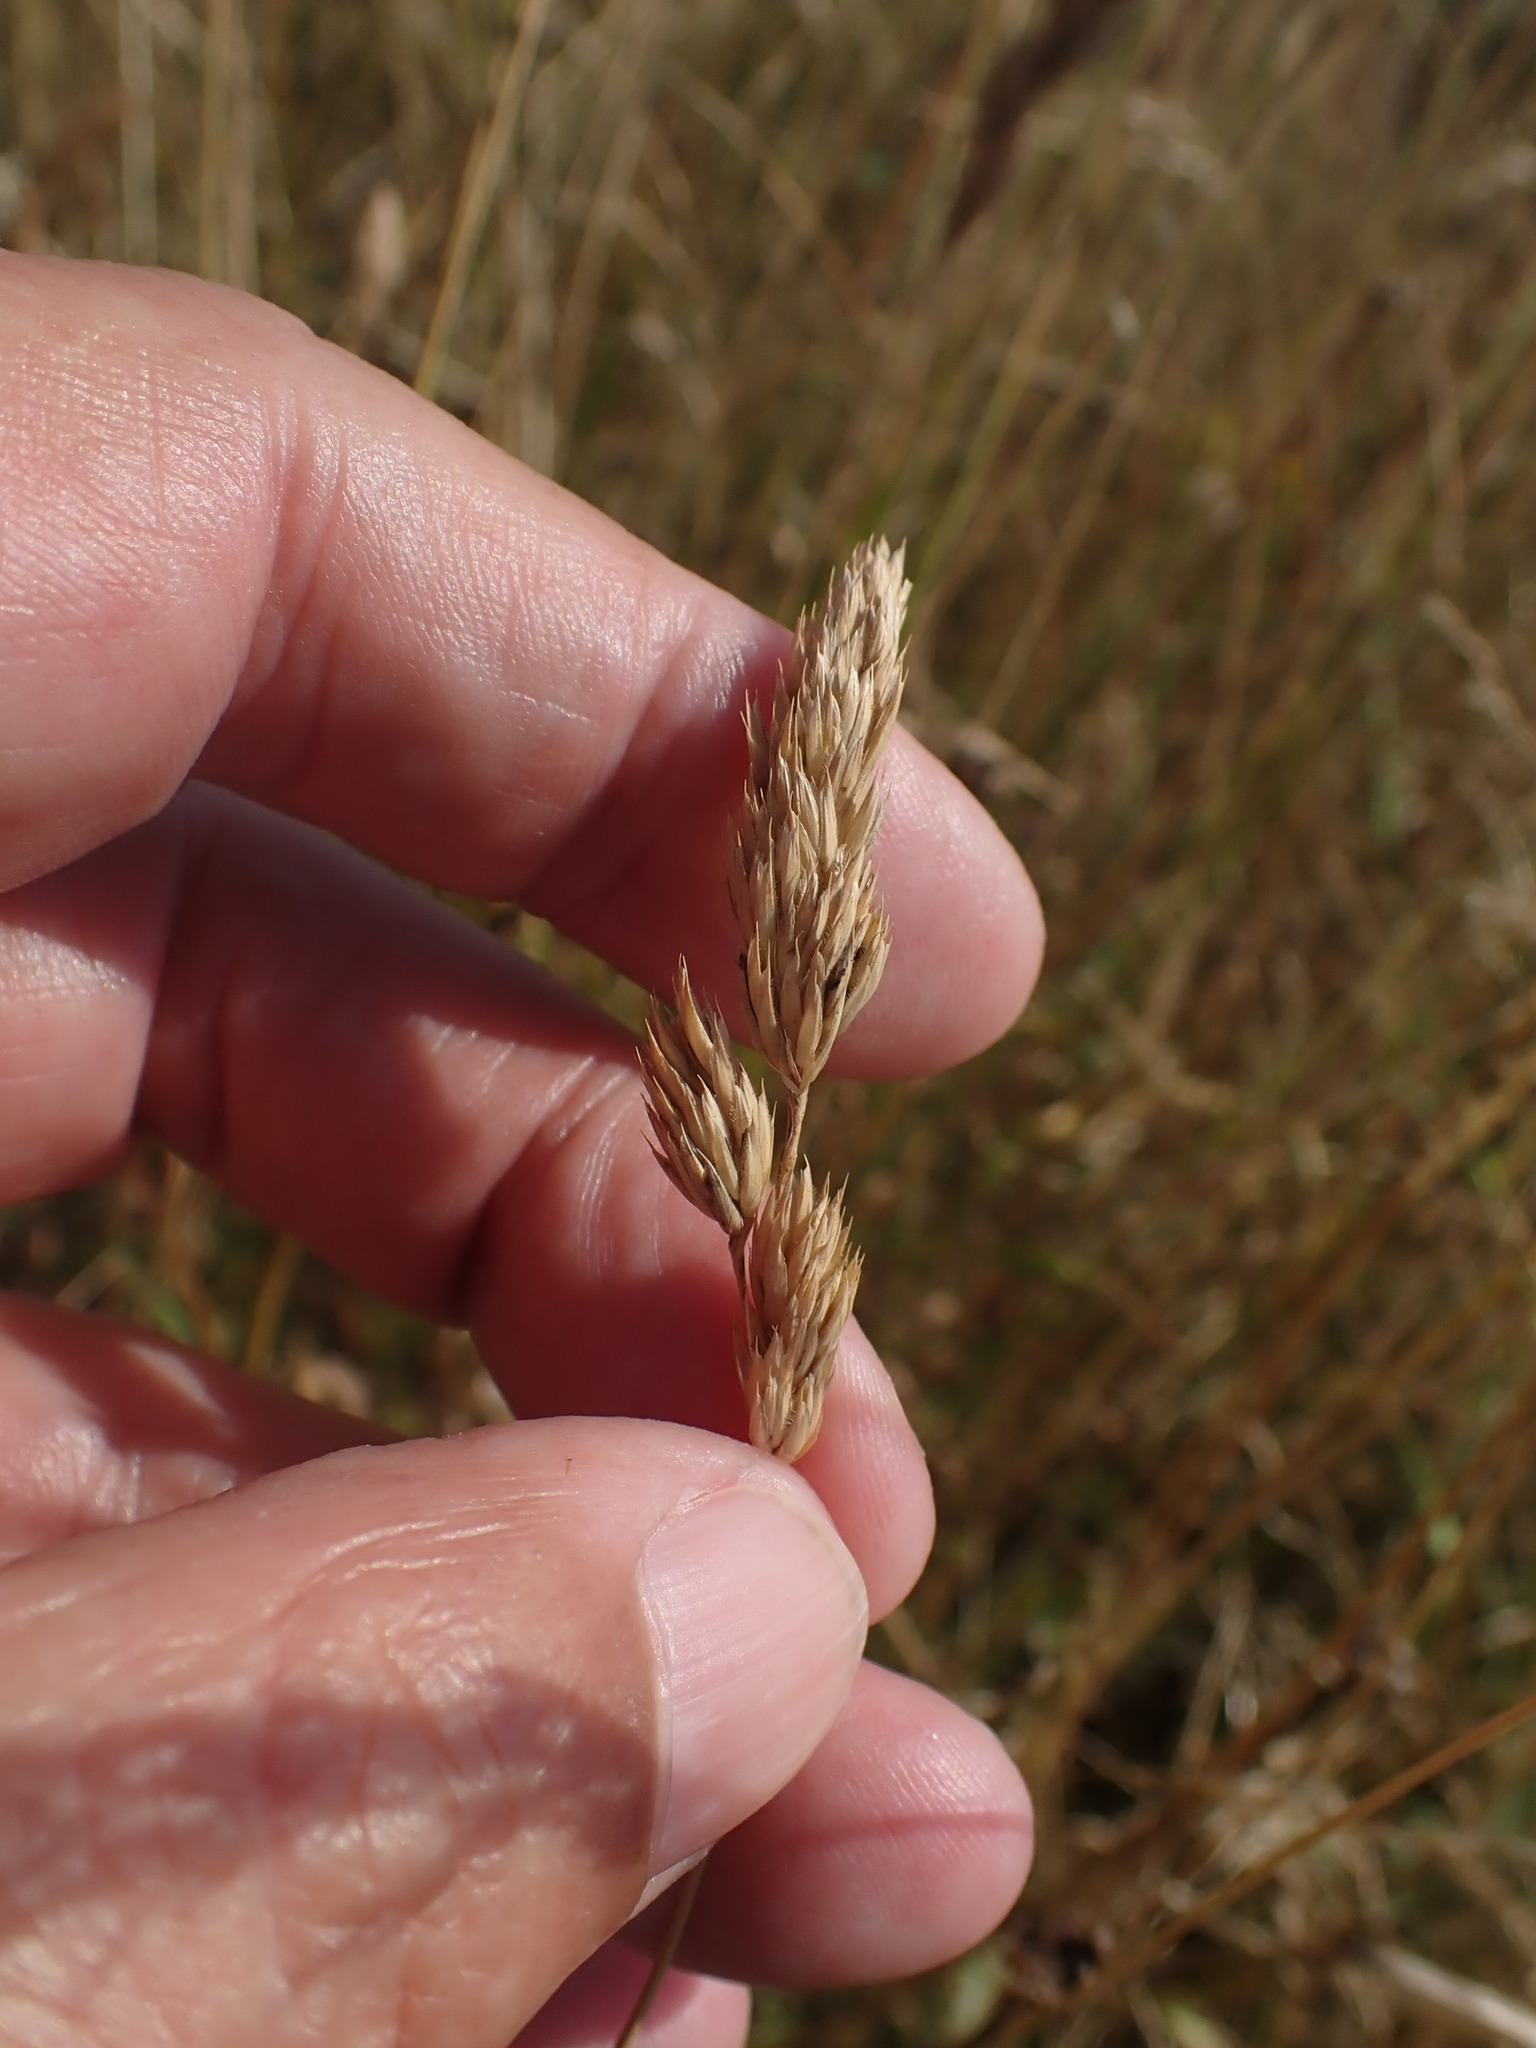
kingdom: Plantae
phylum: Tracheophyta
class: Liliopsida
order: Poales
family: Poaceae
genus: Dactylis
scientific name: Dactylis glomerata
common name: Orchardgrass
